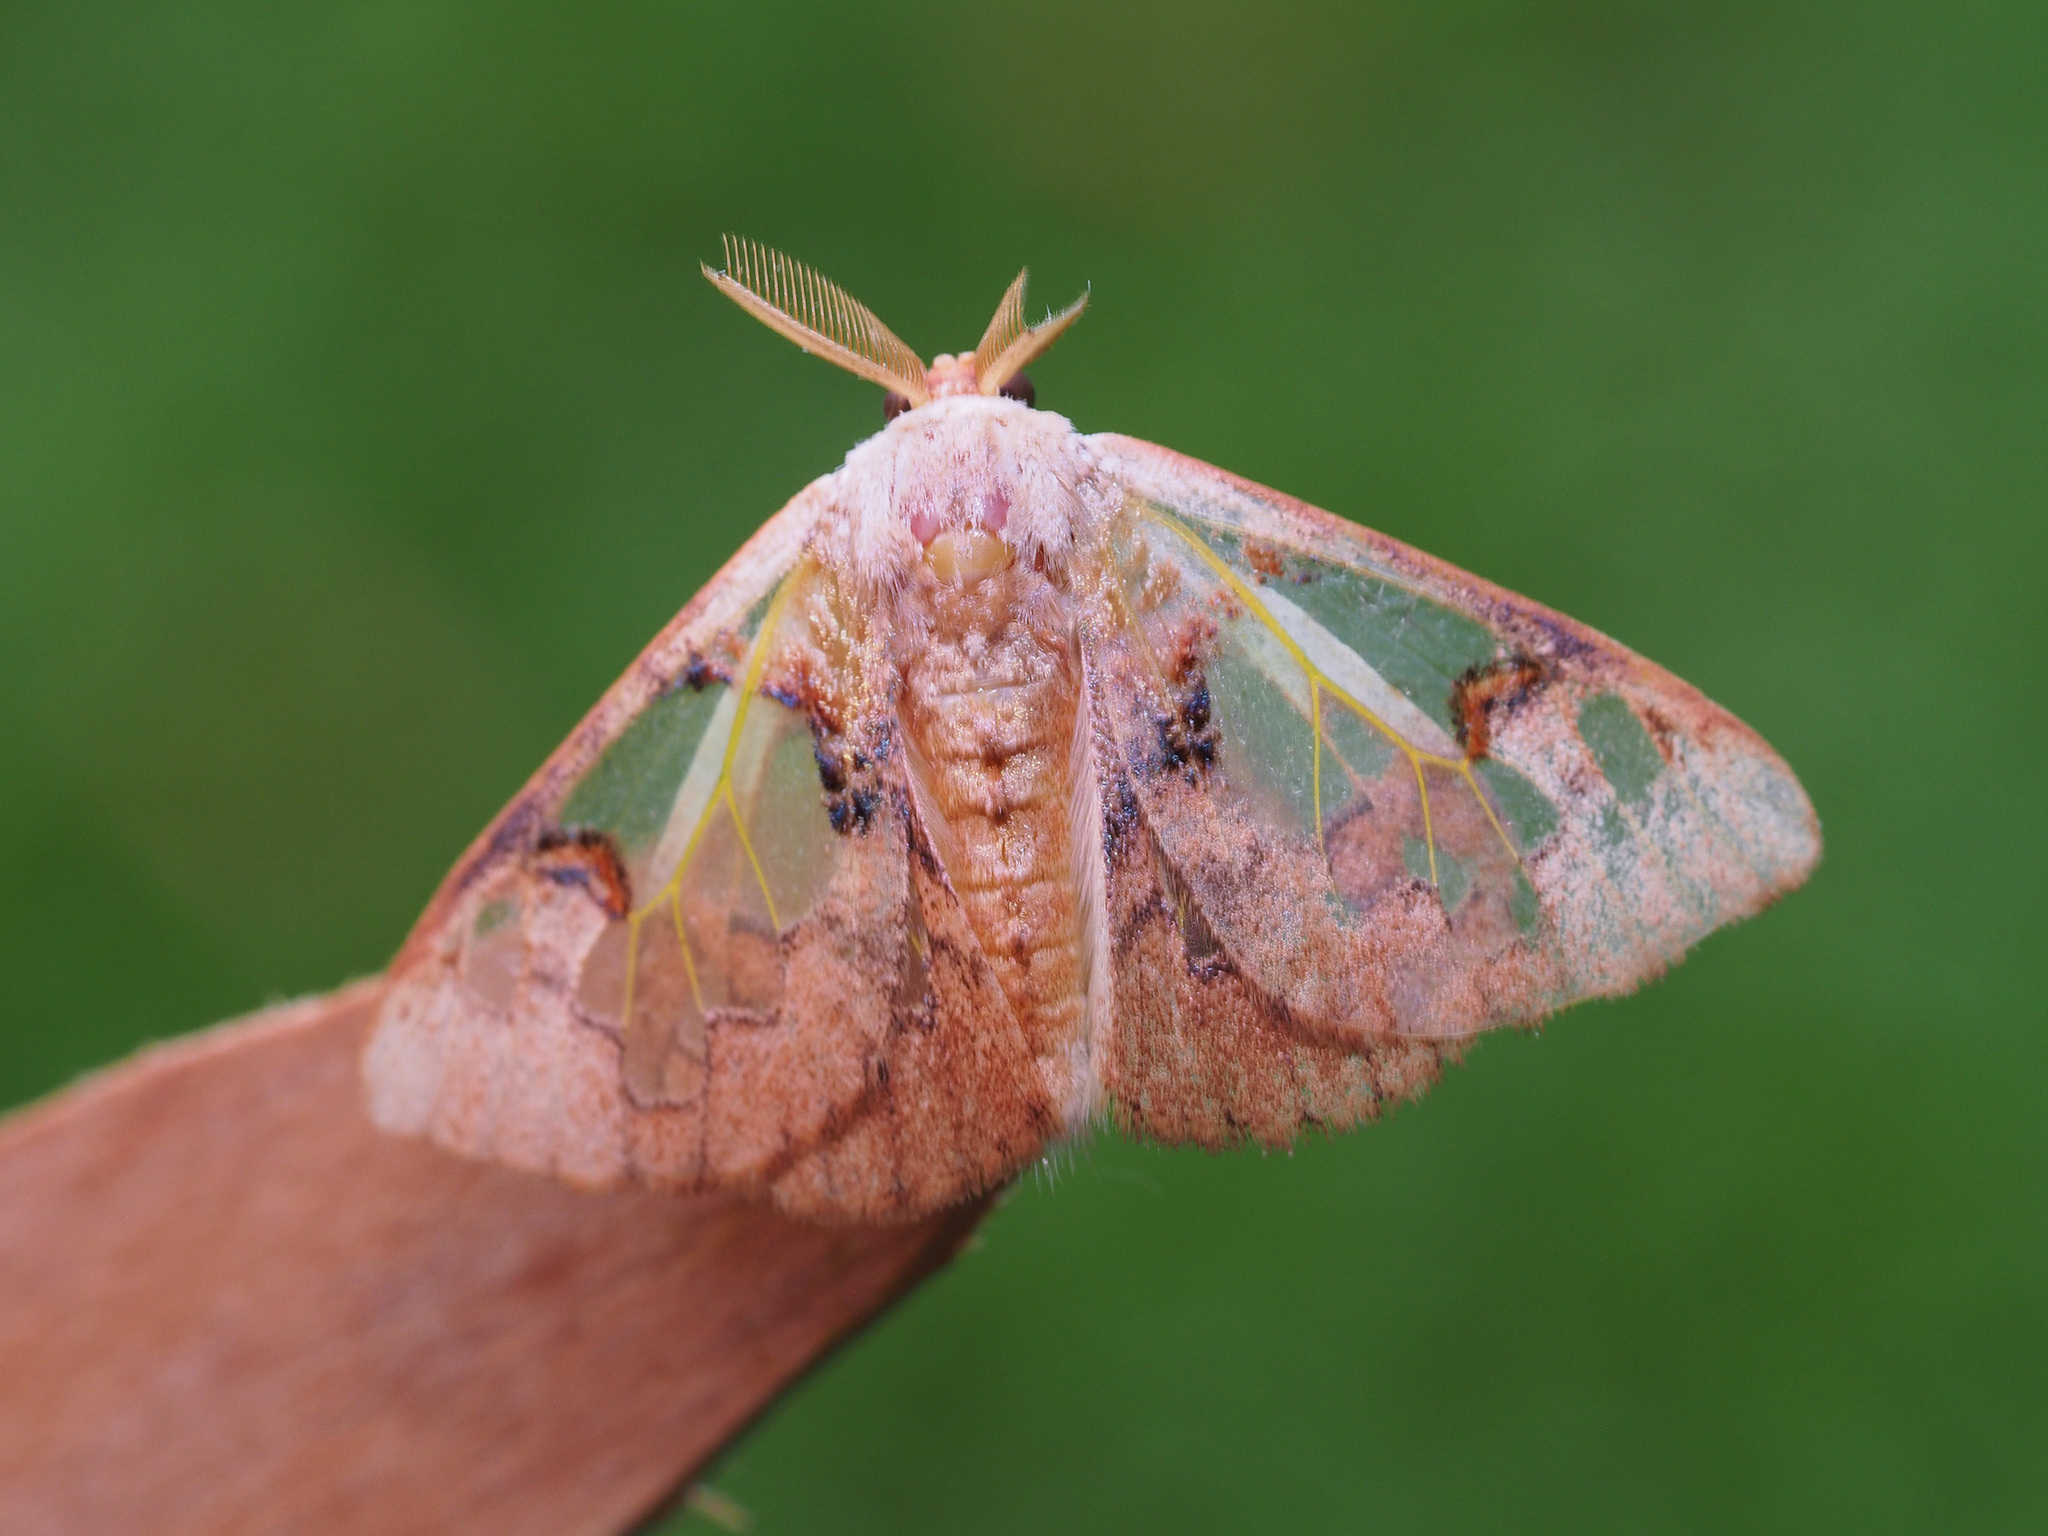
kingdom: Animalia
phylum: Arthropoda
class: Insecta
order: Lepidoptera
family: Erebidae
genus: Carriola
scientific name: Carriola thyridophora
